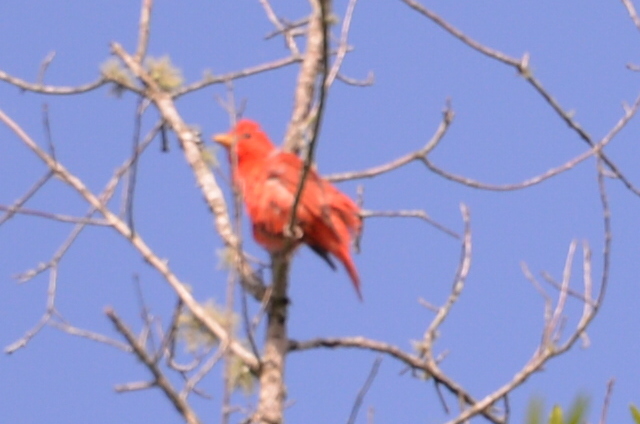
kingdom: Animalia
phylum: Chordata
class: Aves
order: Passeriformes
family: Cardinalidae
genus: Piranga
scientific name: Piranga rubra
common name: Summer tanager
